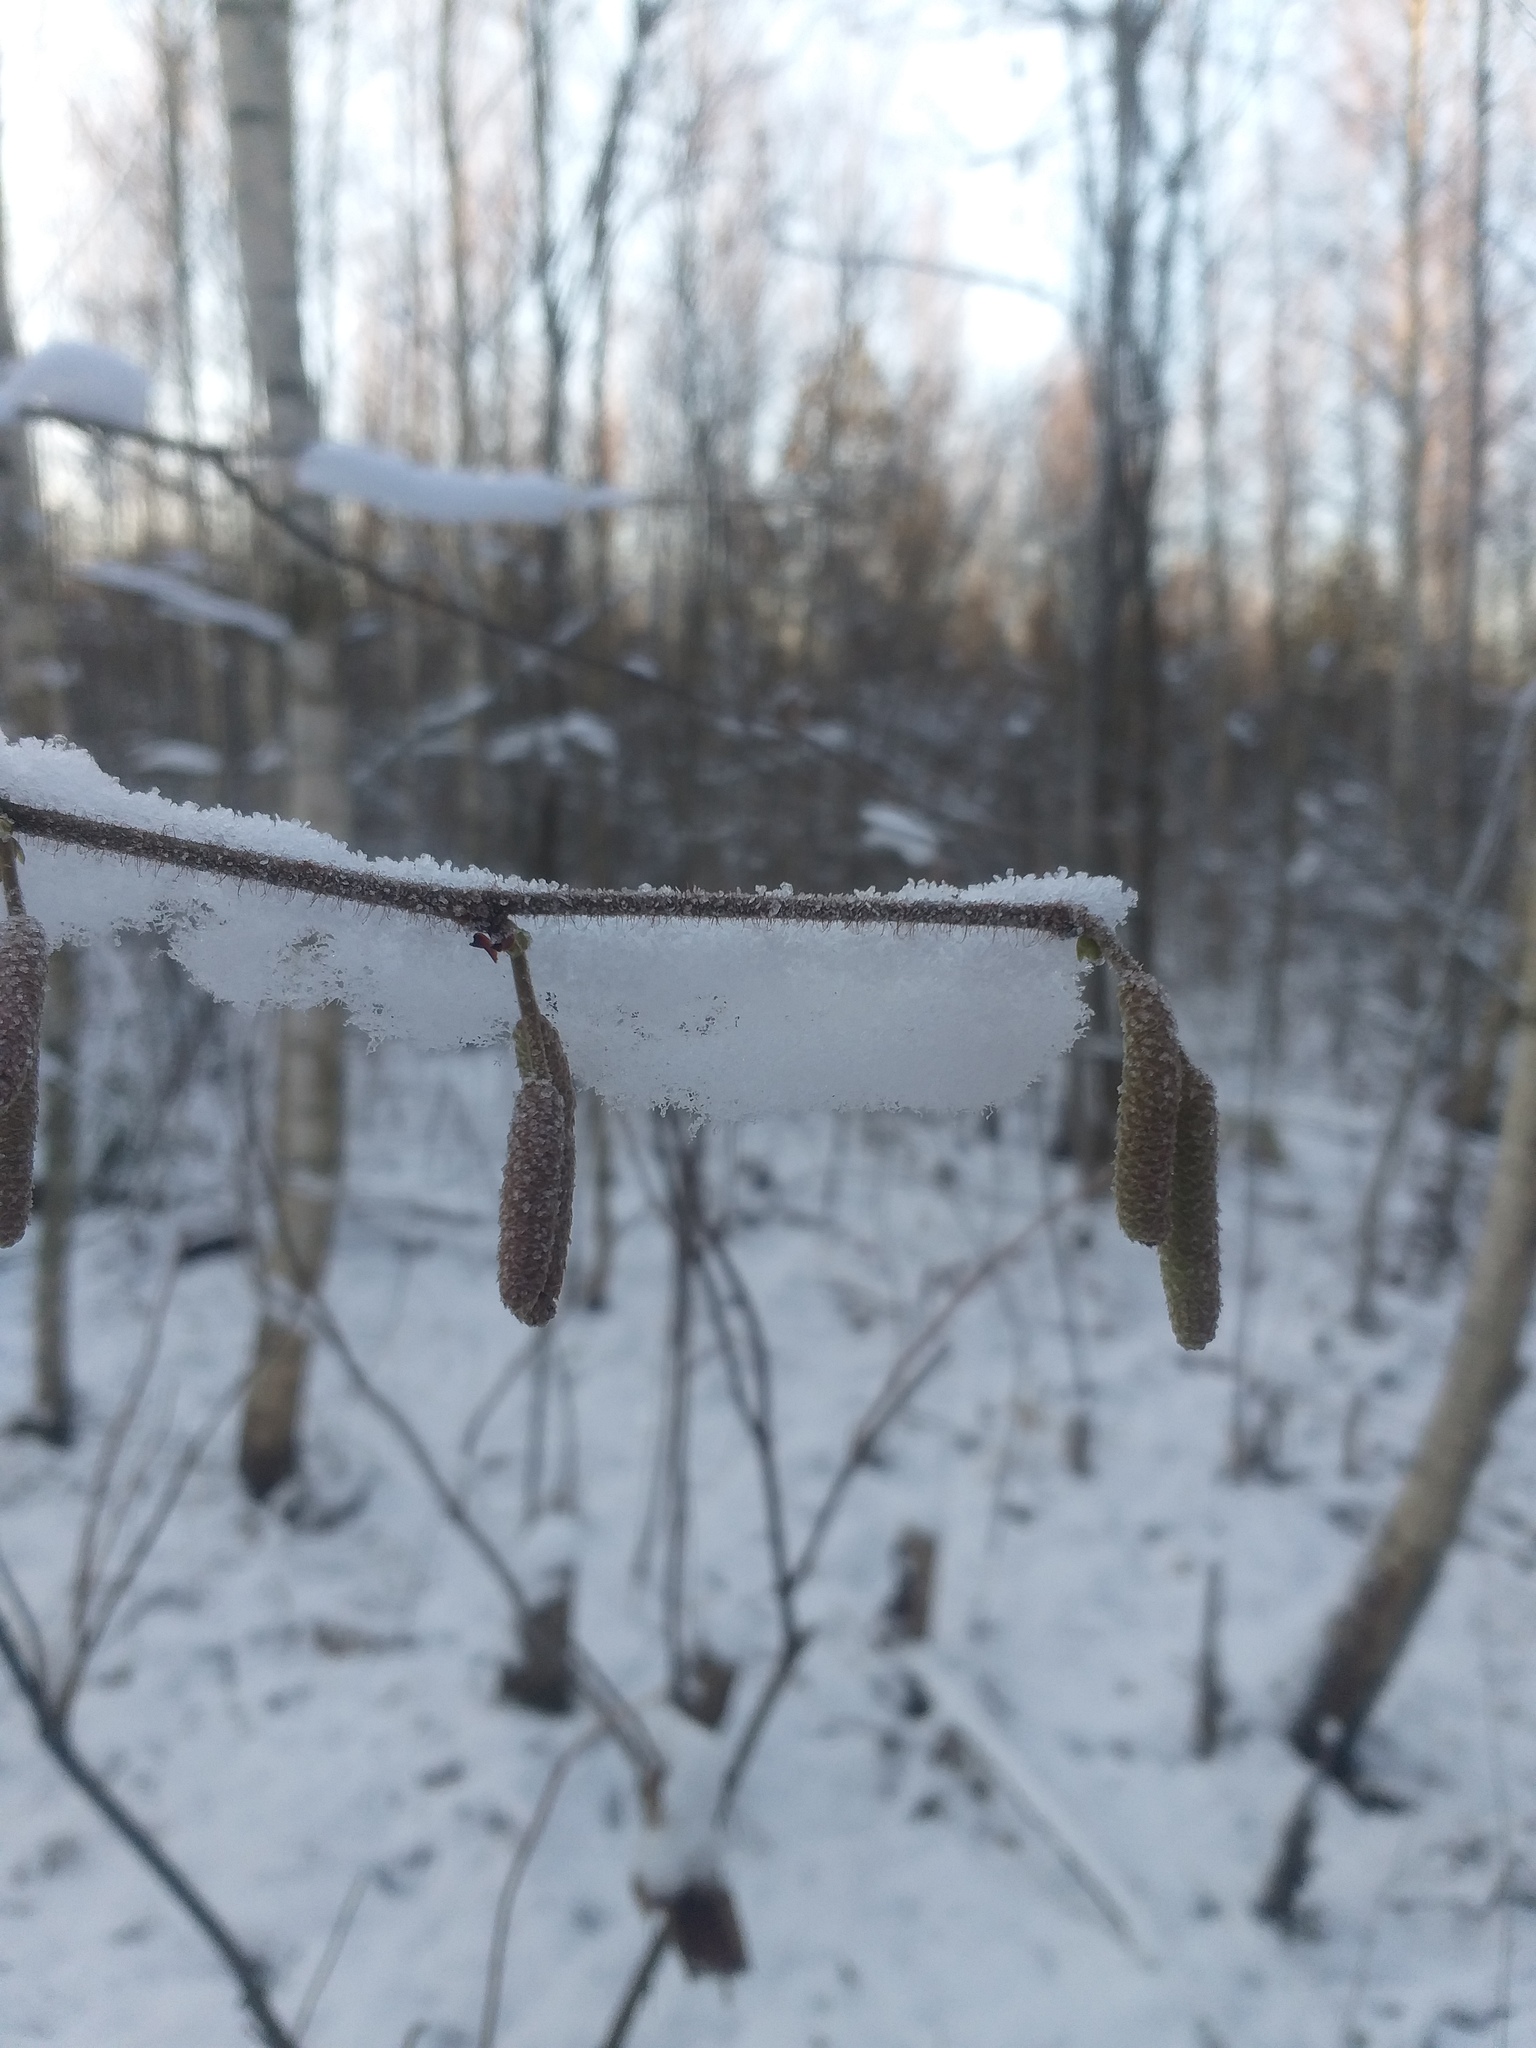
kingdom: Plantae
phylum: Tracheophyta
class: Magnoliopsida
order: Fagales
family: Betulaceae
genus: Corylus
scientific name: Corylus avellana
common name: European hazel
